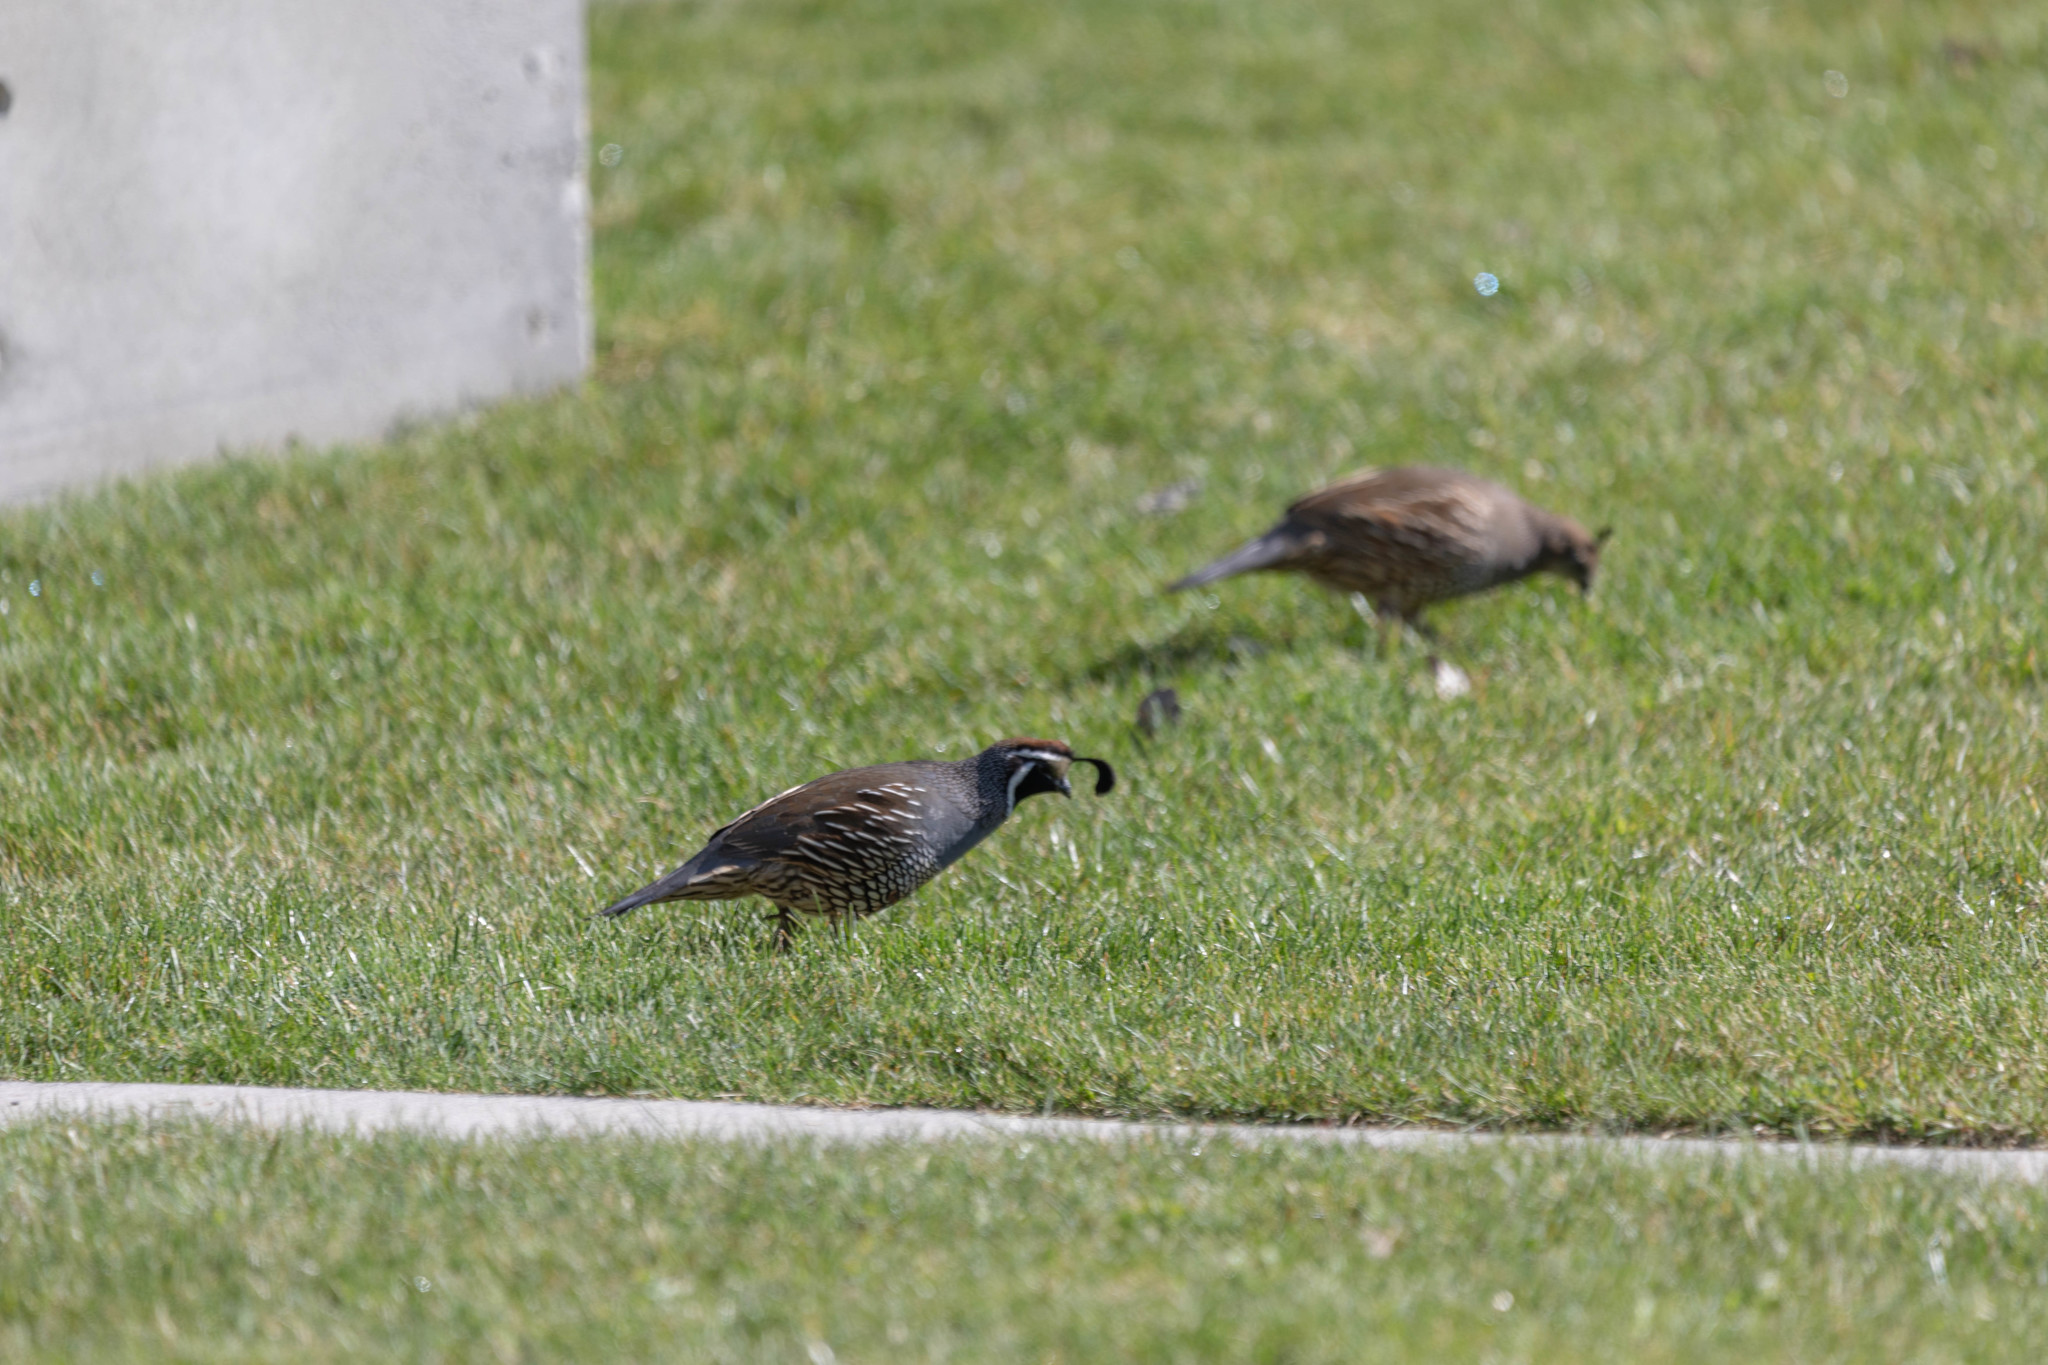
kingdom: Animalia
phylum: Chordata
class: Aves
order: Galliformes
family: Odontophoridae
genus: Callipepla
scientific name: Callipepla californica
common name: California quail
